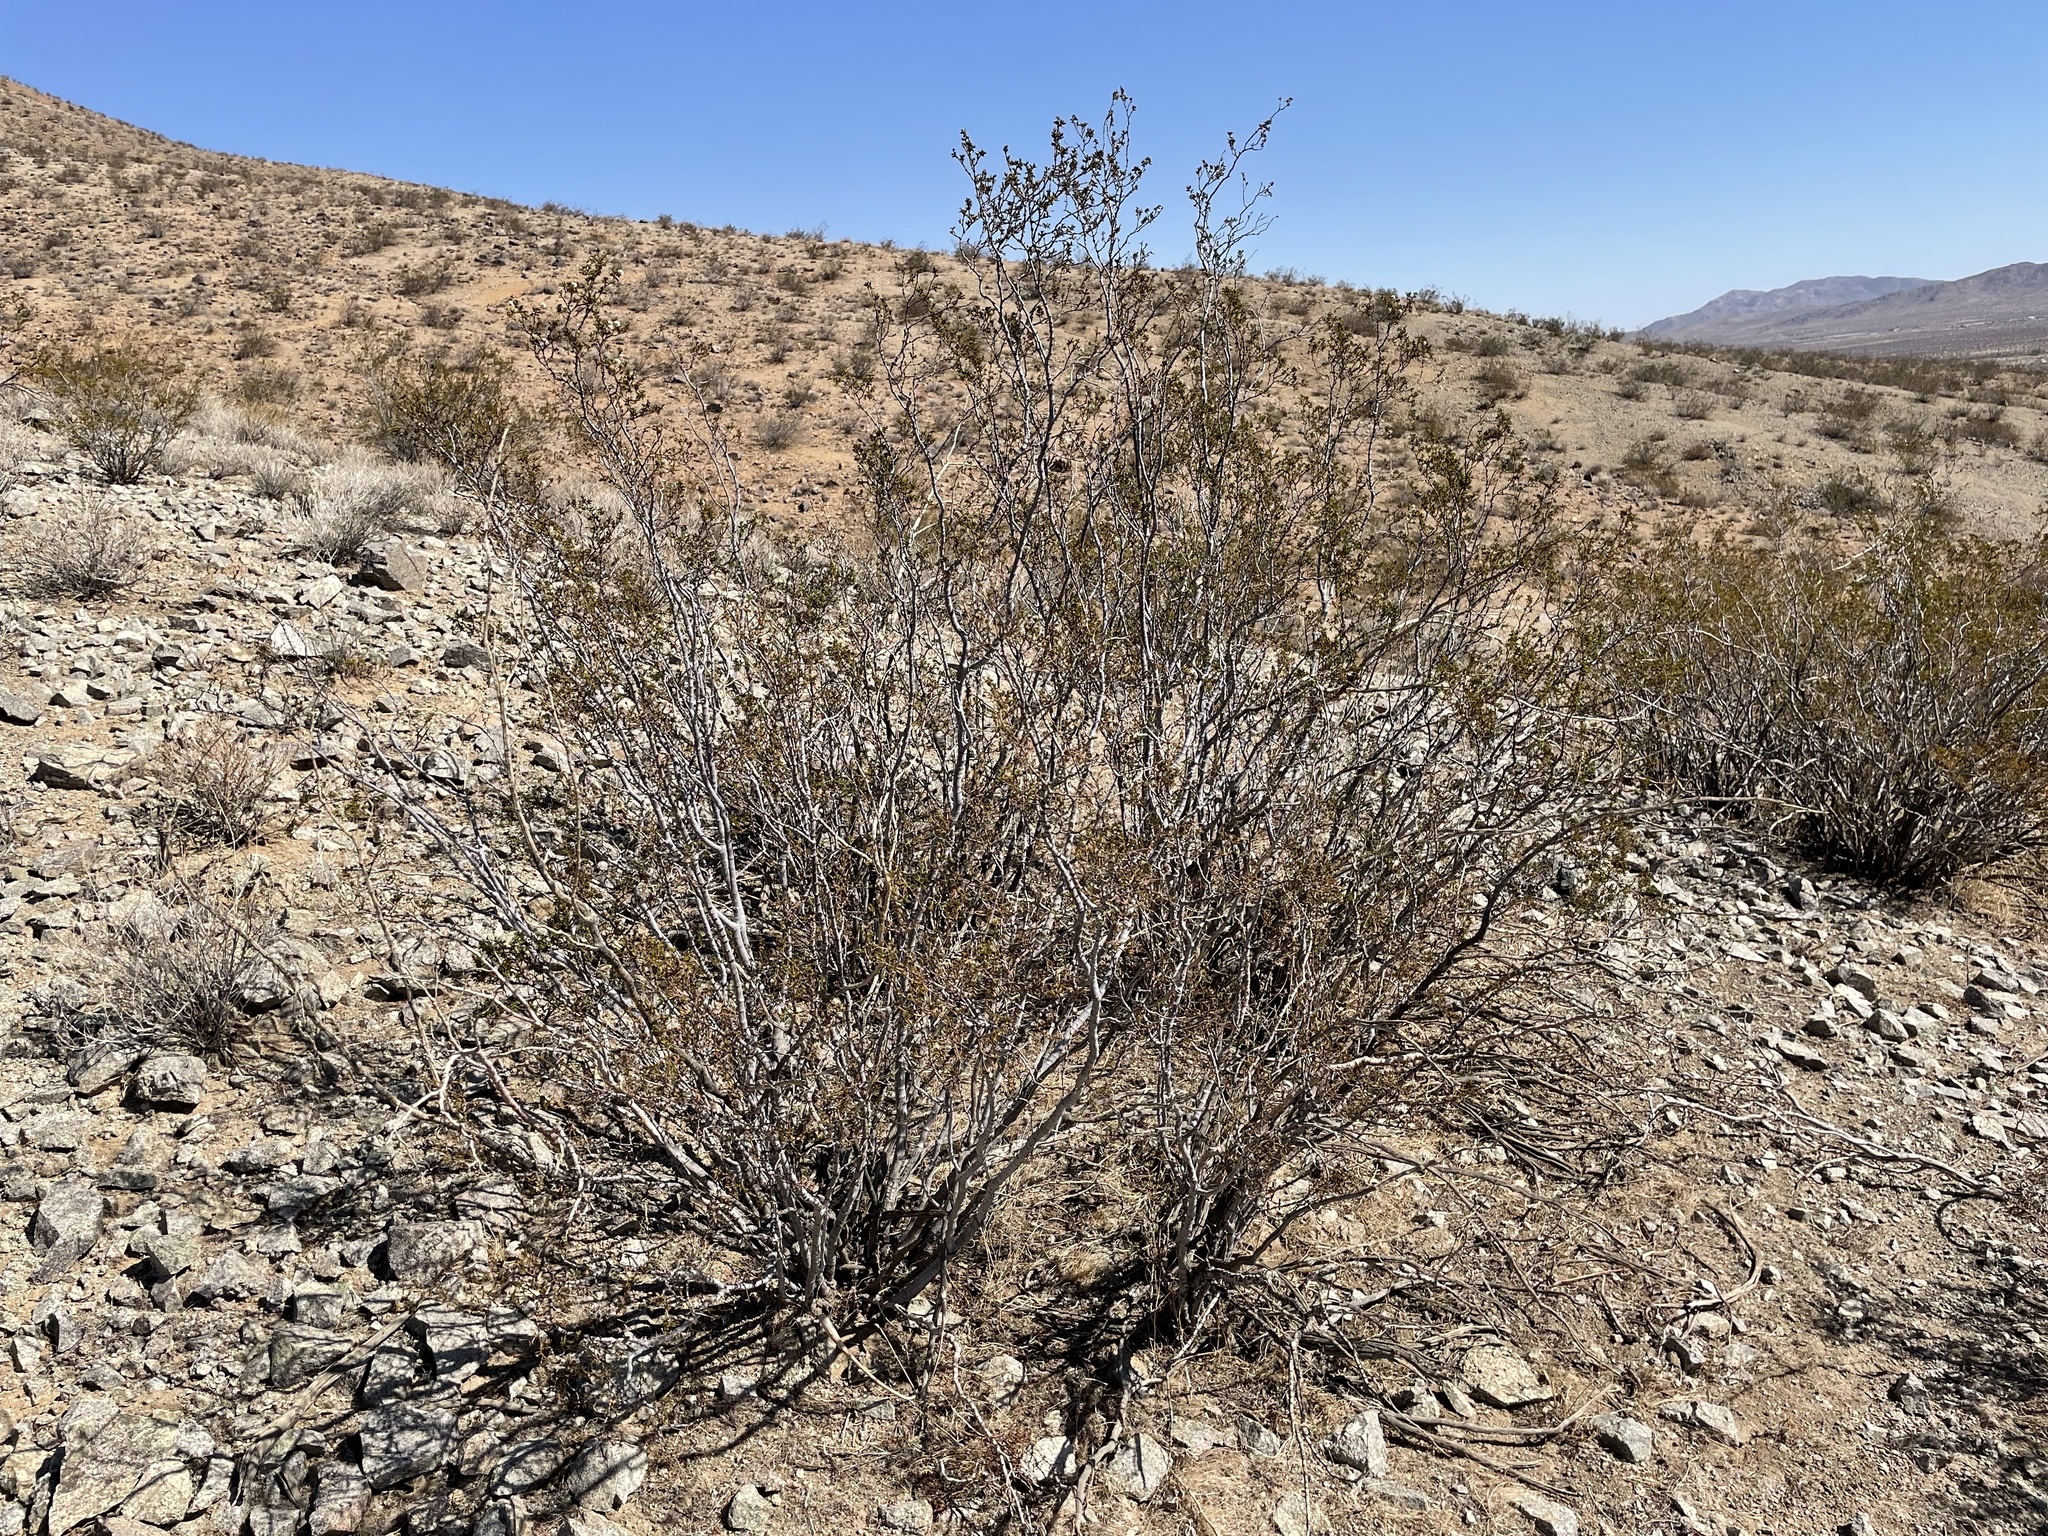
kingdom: Plantae
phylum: Tracheophyta
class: Magnoliopsida
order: Zygophyllales
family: Zygophyllaceae
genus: Larrea
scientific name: Larrea tridentata
